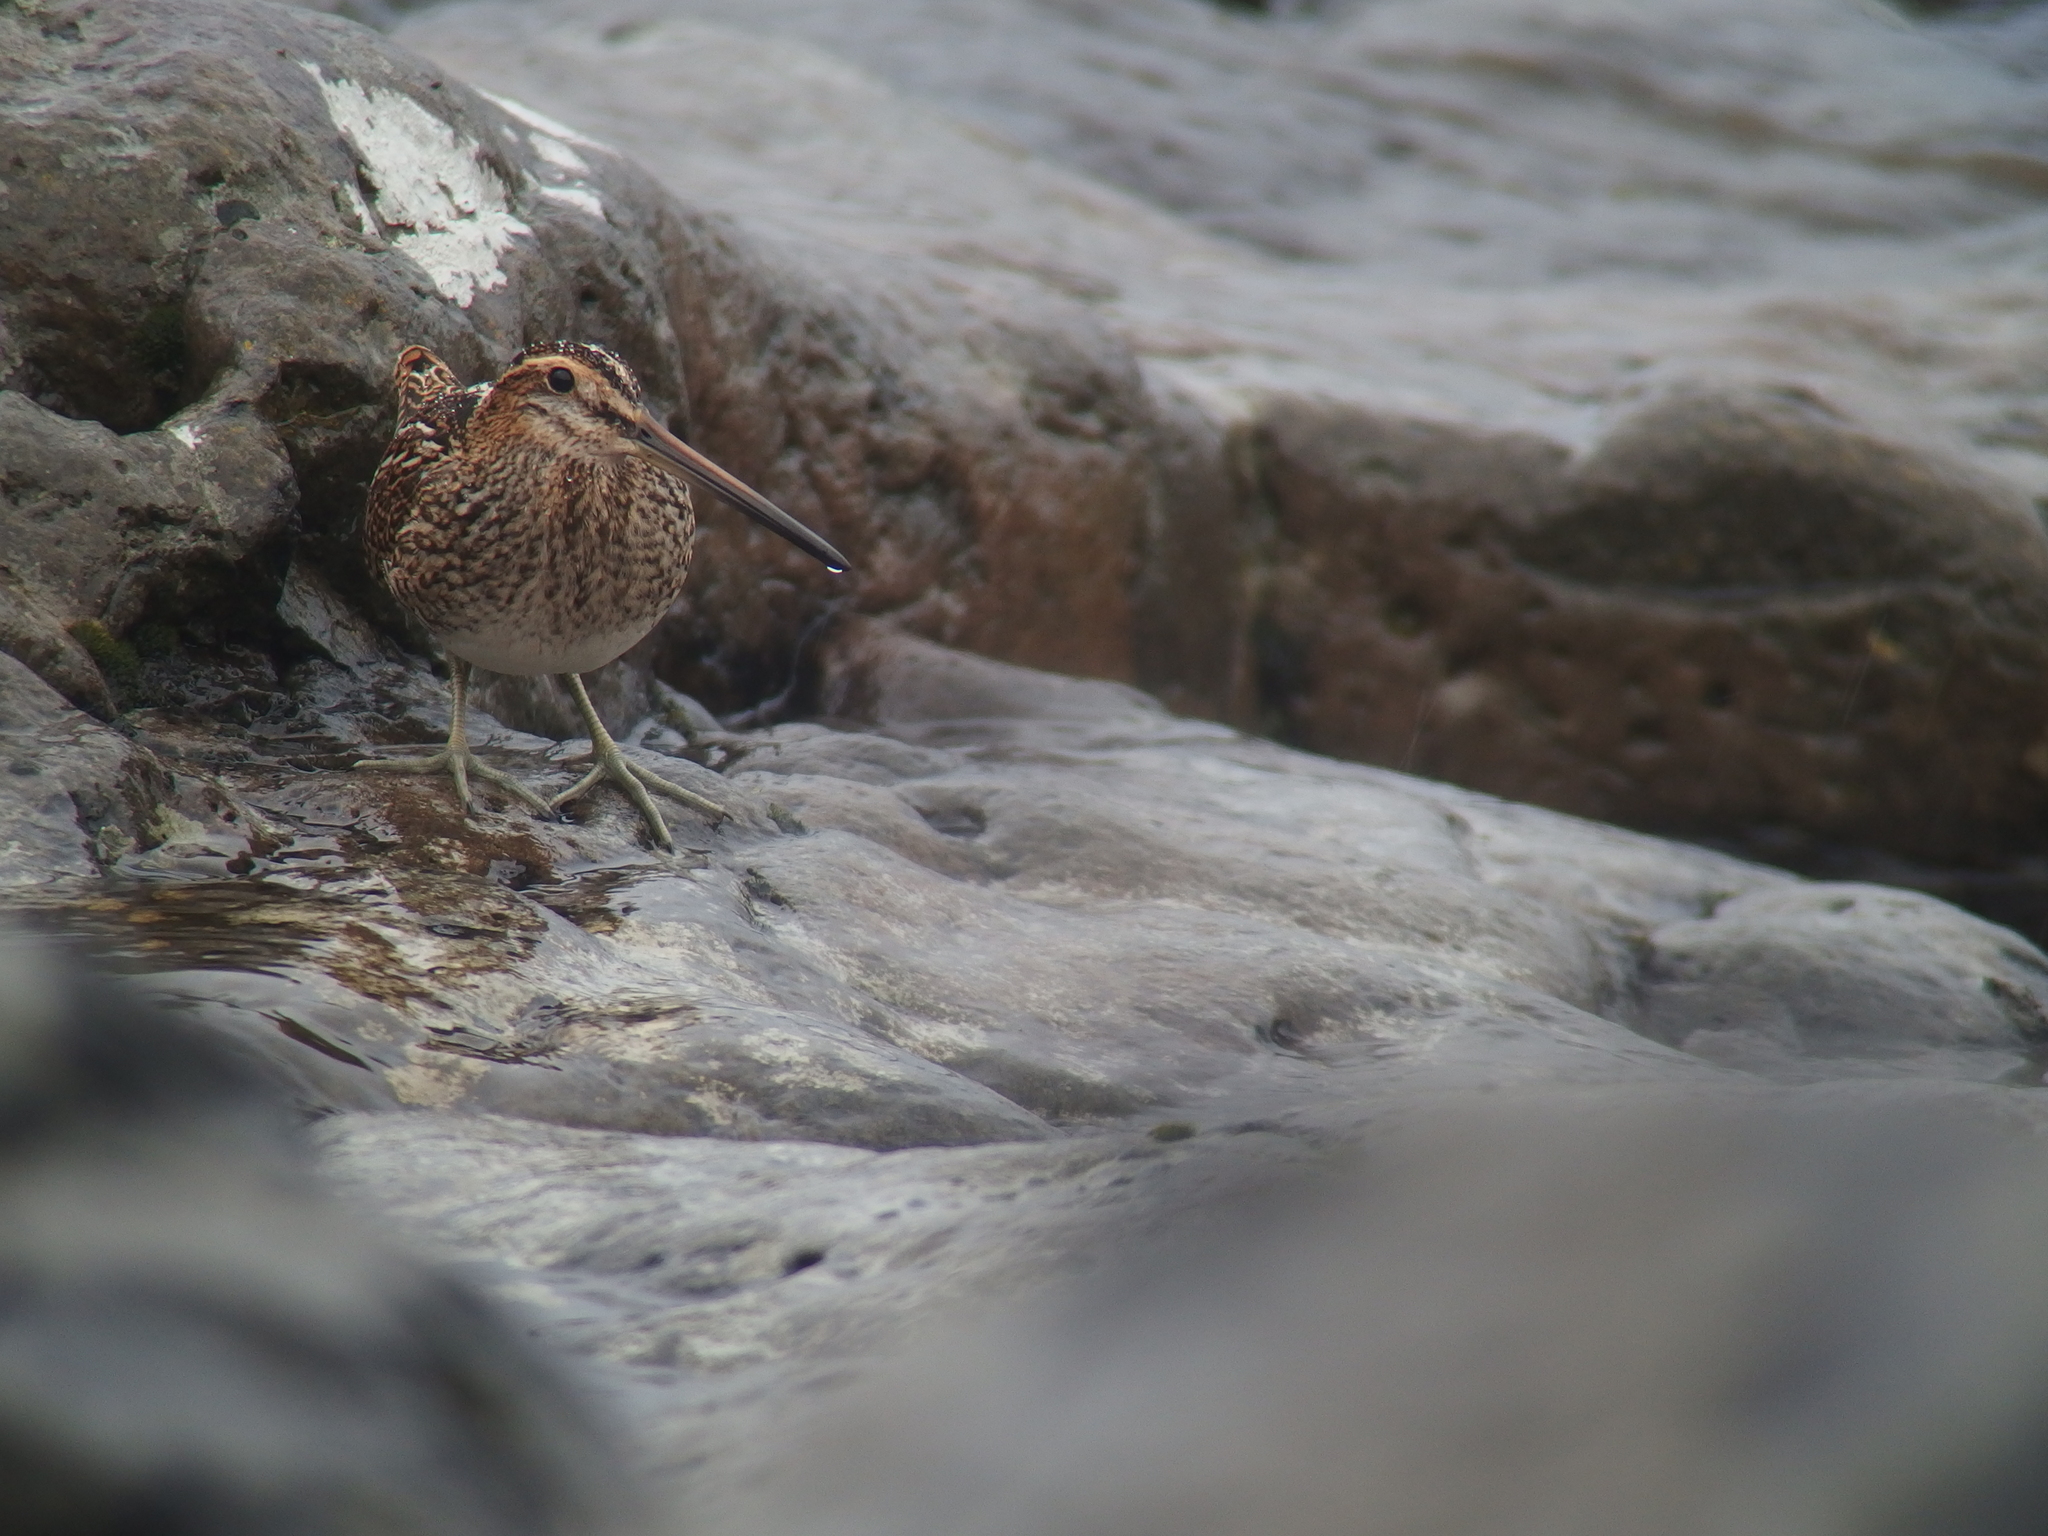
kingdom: Animalia
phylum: Chordata
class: Aves
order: Charadriiformes
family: Scolopacidae
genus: Gallinago
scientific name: Gallinago gallinago
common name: Common snipe
